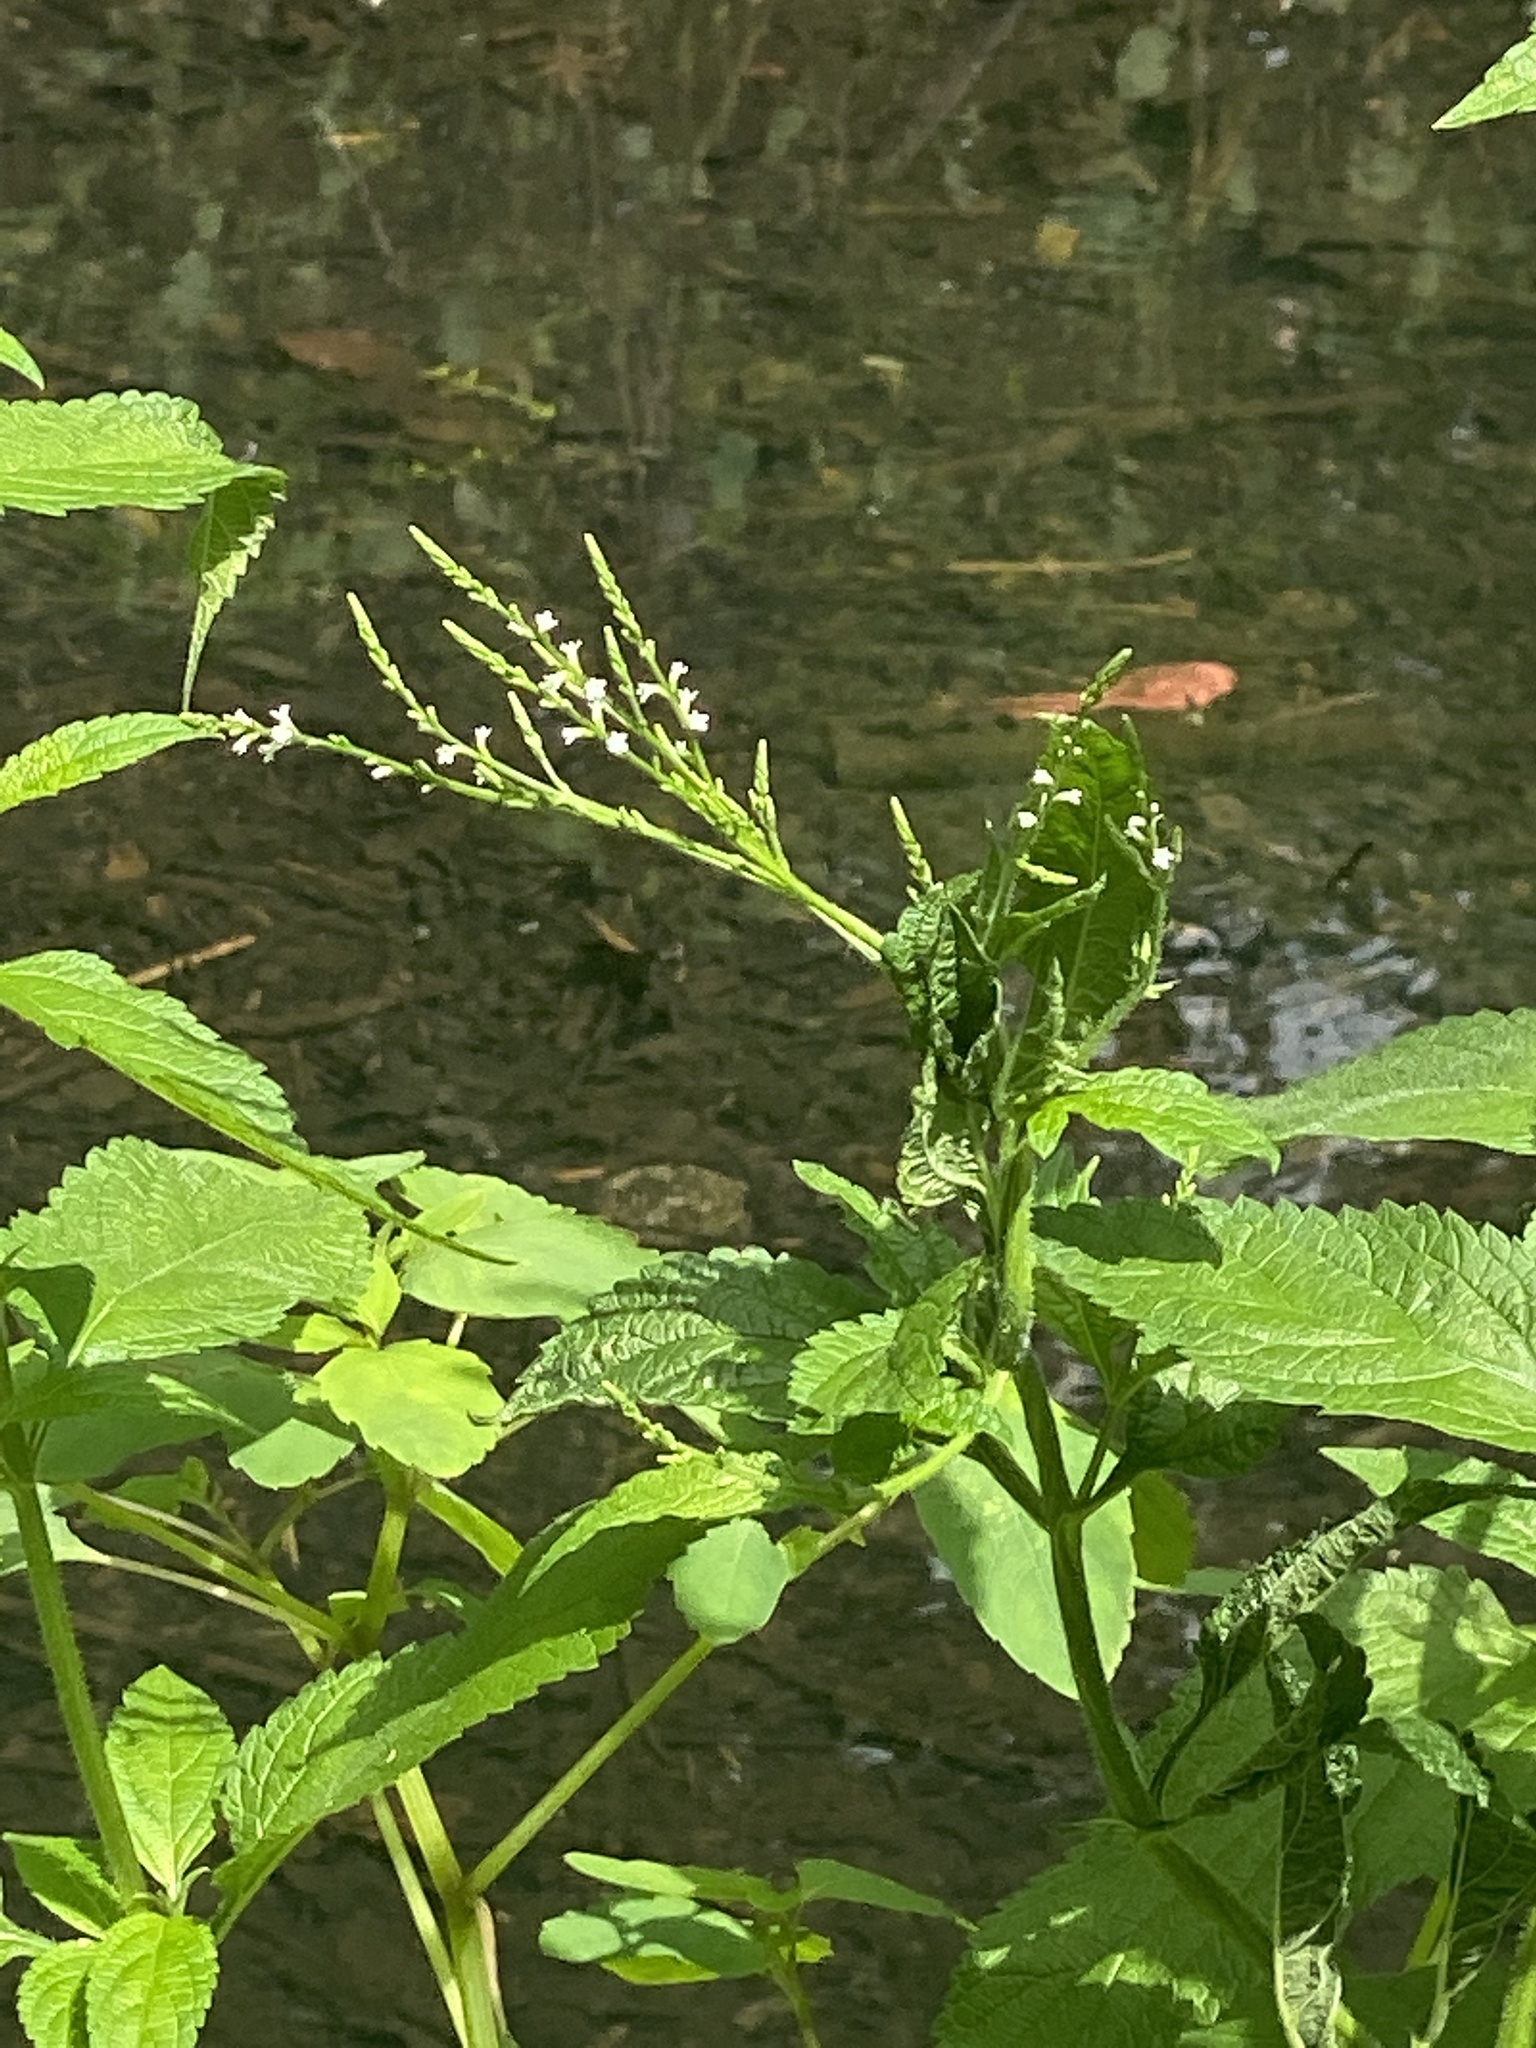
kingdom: Plantae
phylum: Tracheophyta
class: Magnoliopsida
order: Lamiales
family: Verbenaceae
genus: Verbena
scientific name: Verbena urticifolia
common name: Nettle-leaved vervain
